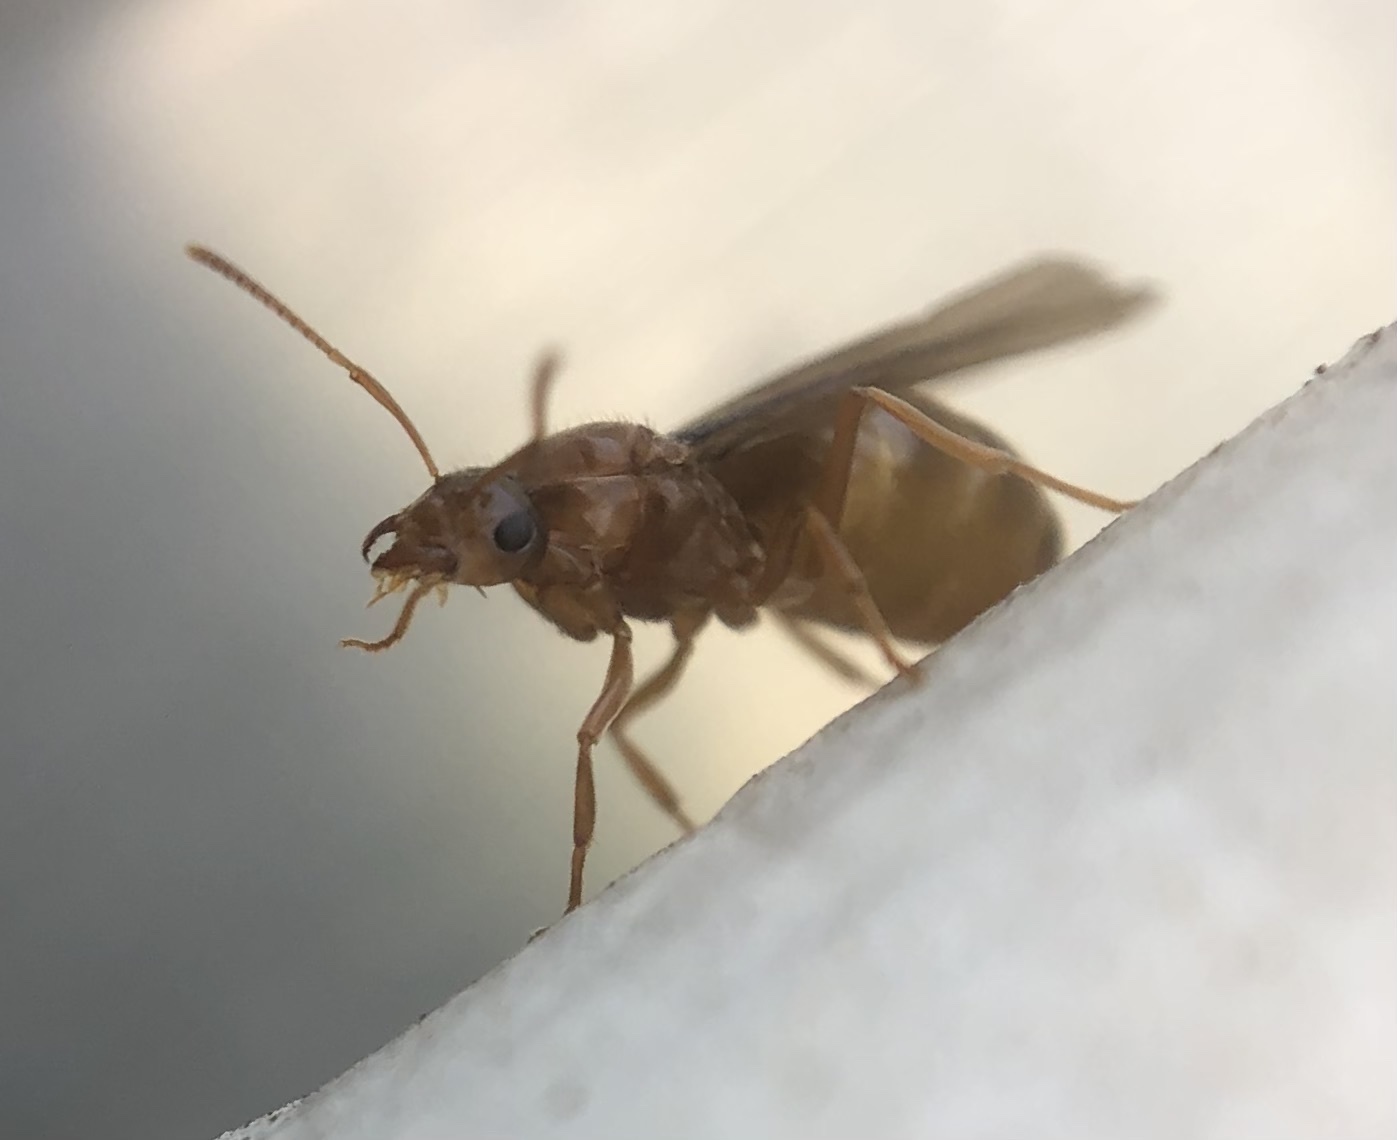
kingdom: Animalia
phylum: Arthropoda
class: Insecta
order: Hymenoptera
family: Formicidae
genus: Prenolepis
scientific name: Prenolepis imparis
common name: Small honey ant
